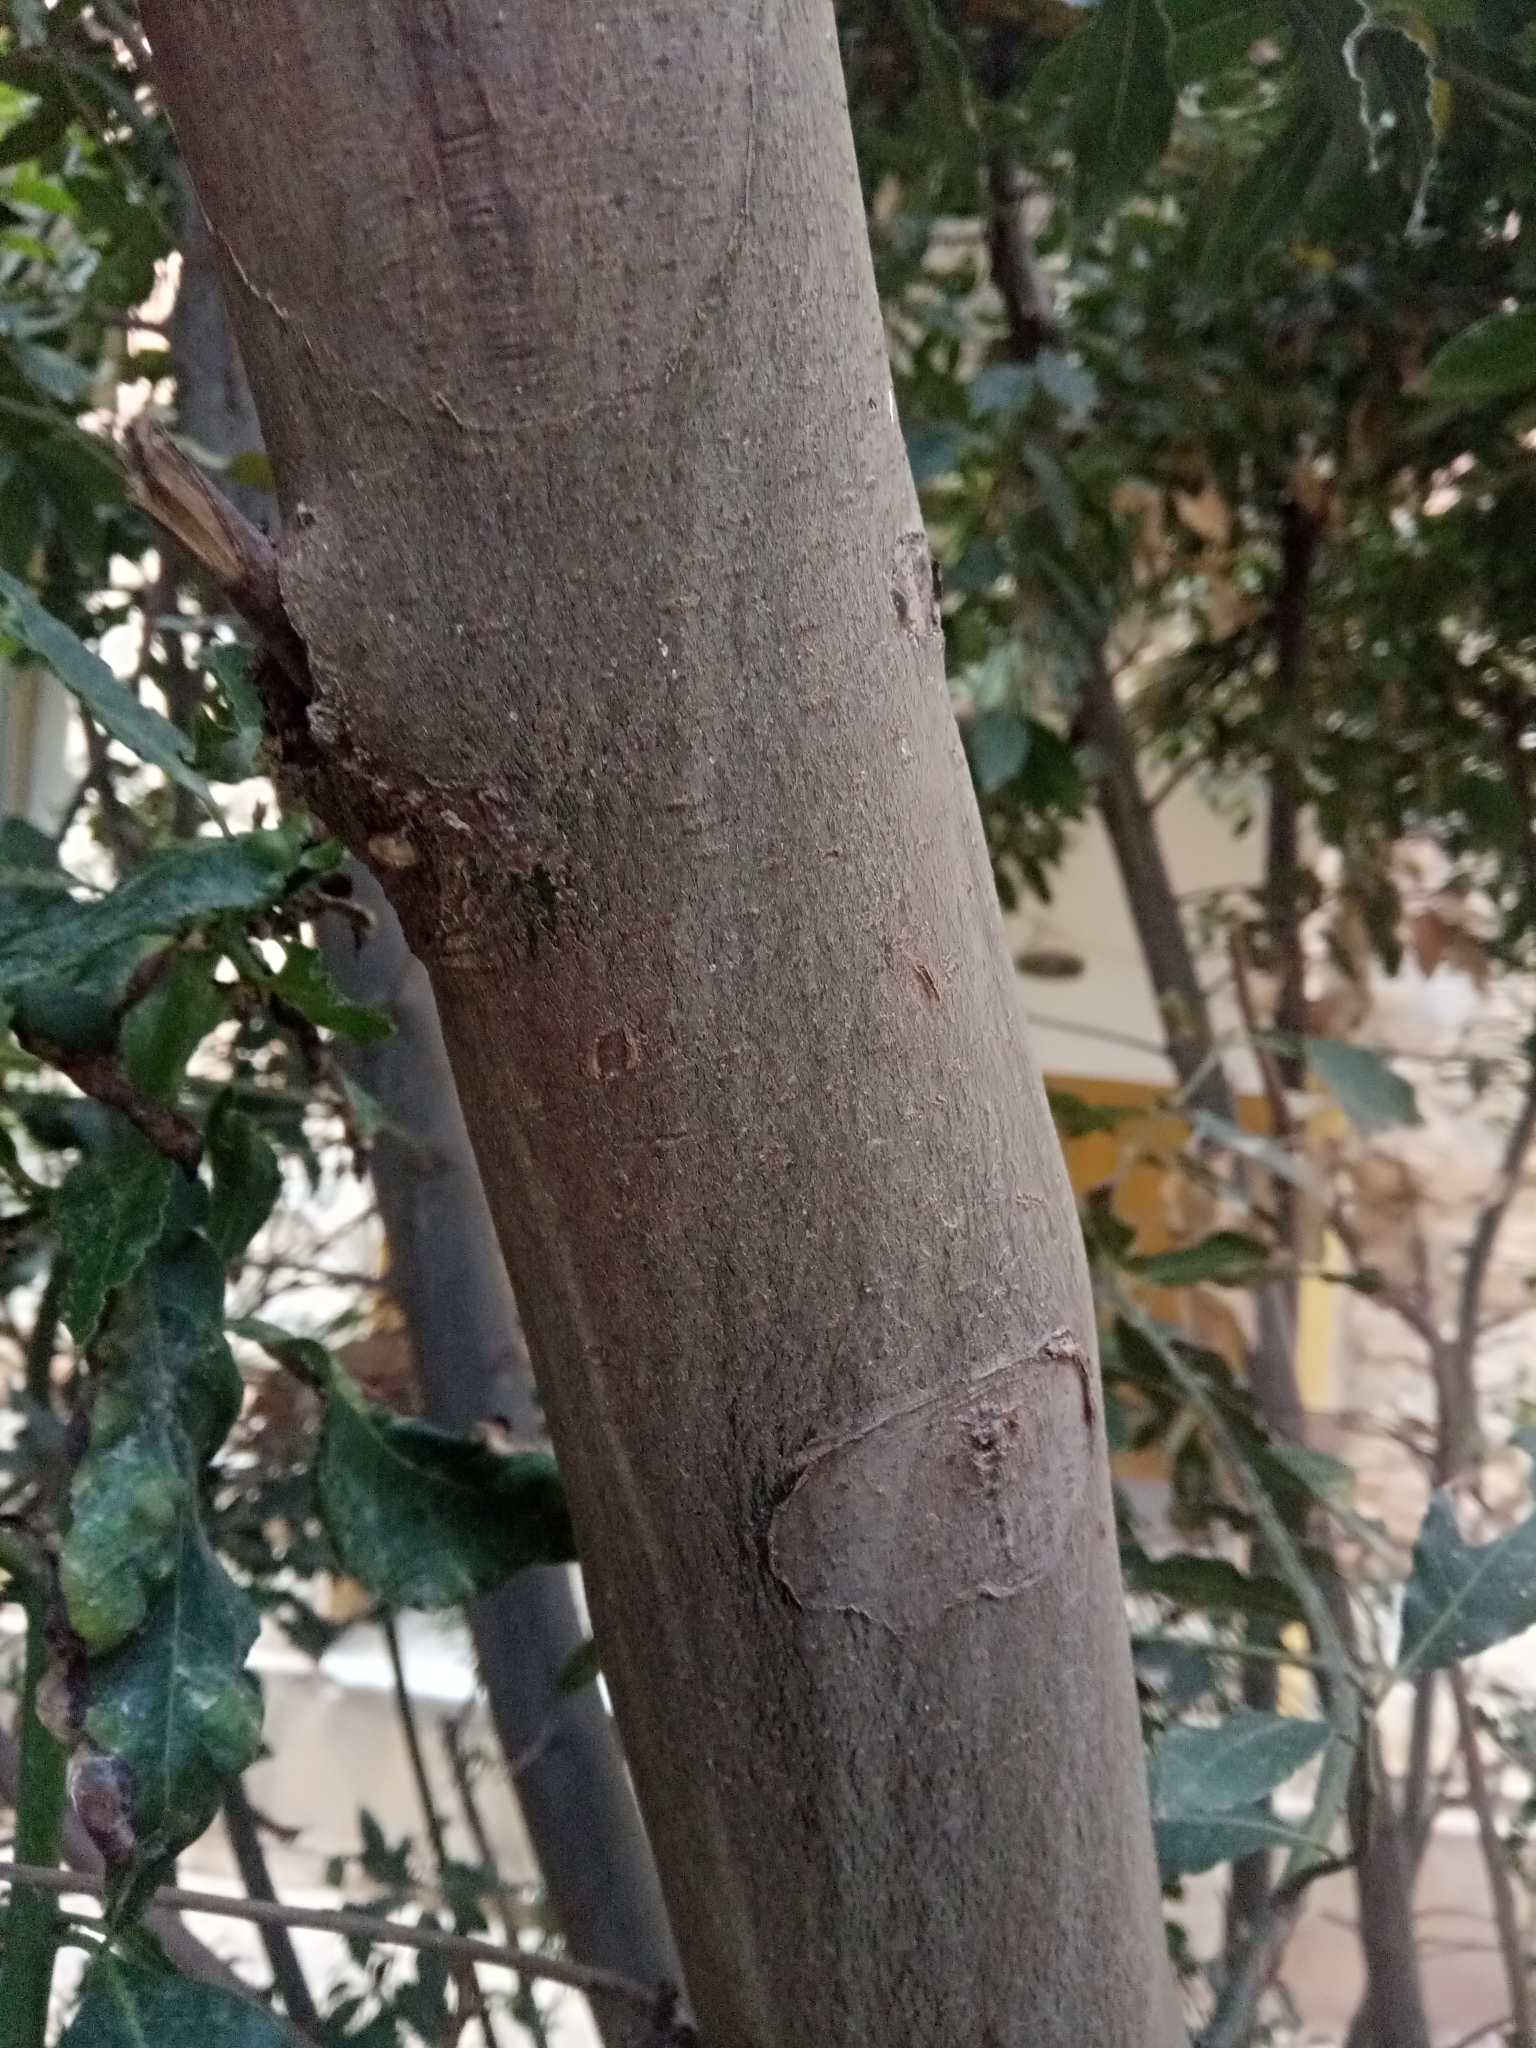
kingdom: Plantae
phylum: Tracheophyta
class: Magnoliopsida
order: Laurales
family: Lauraceae
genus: Laurus
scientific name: Laurus nobilis
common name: Bay
